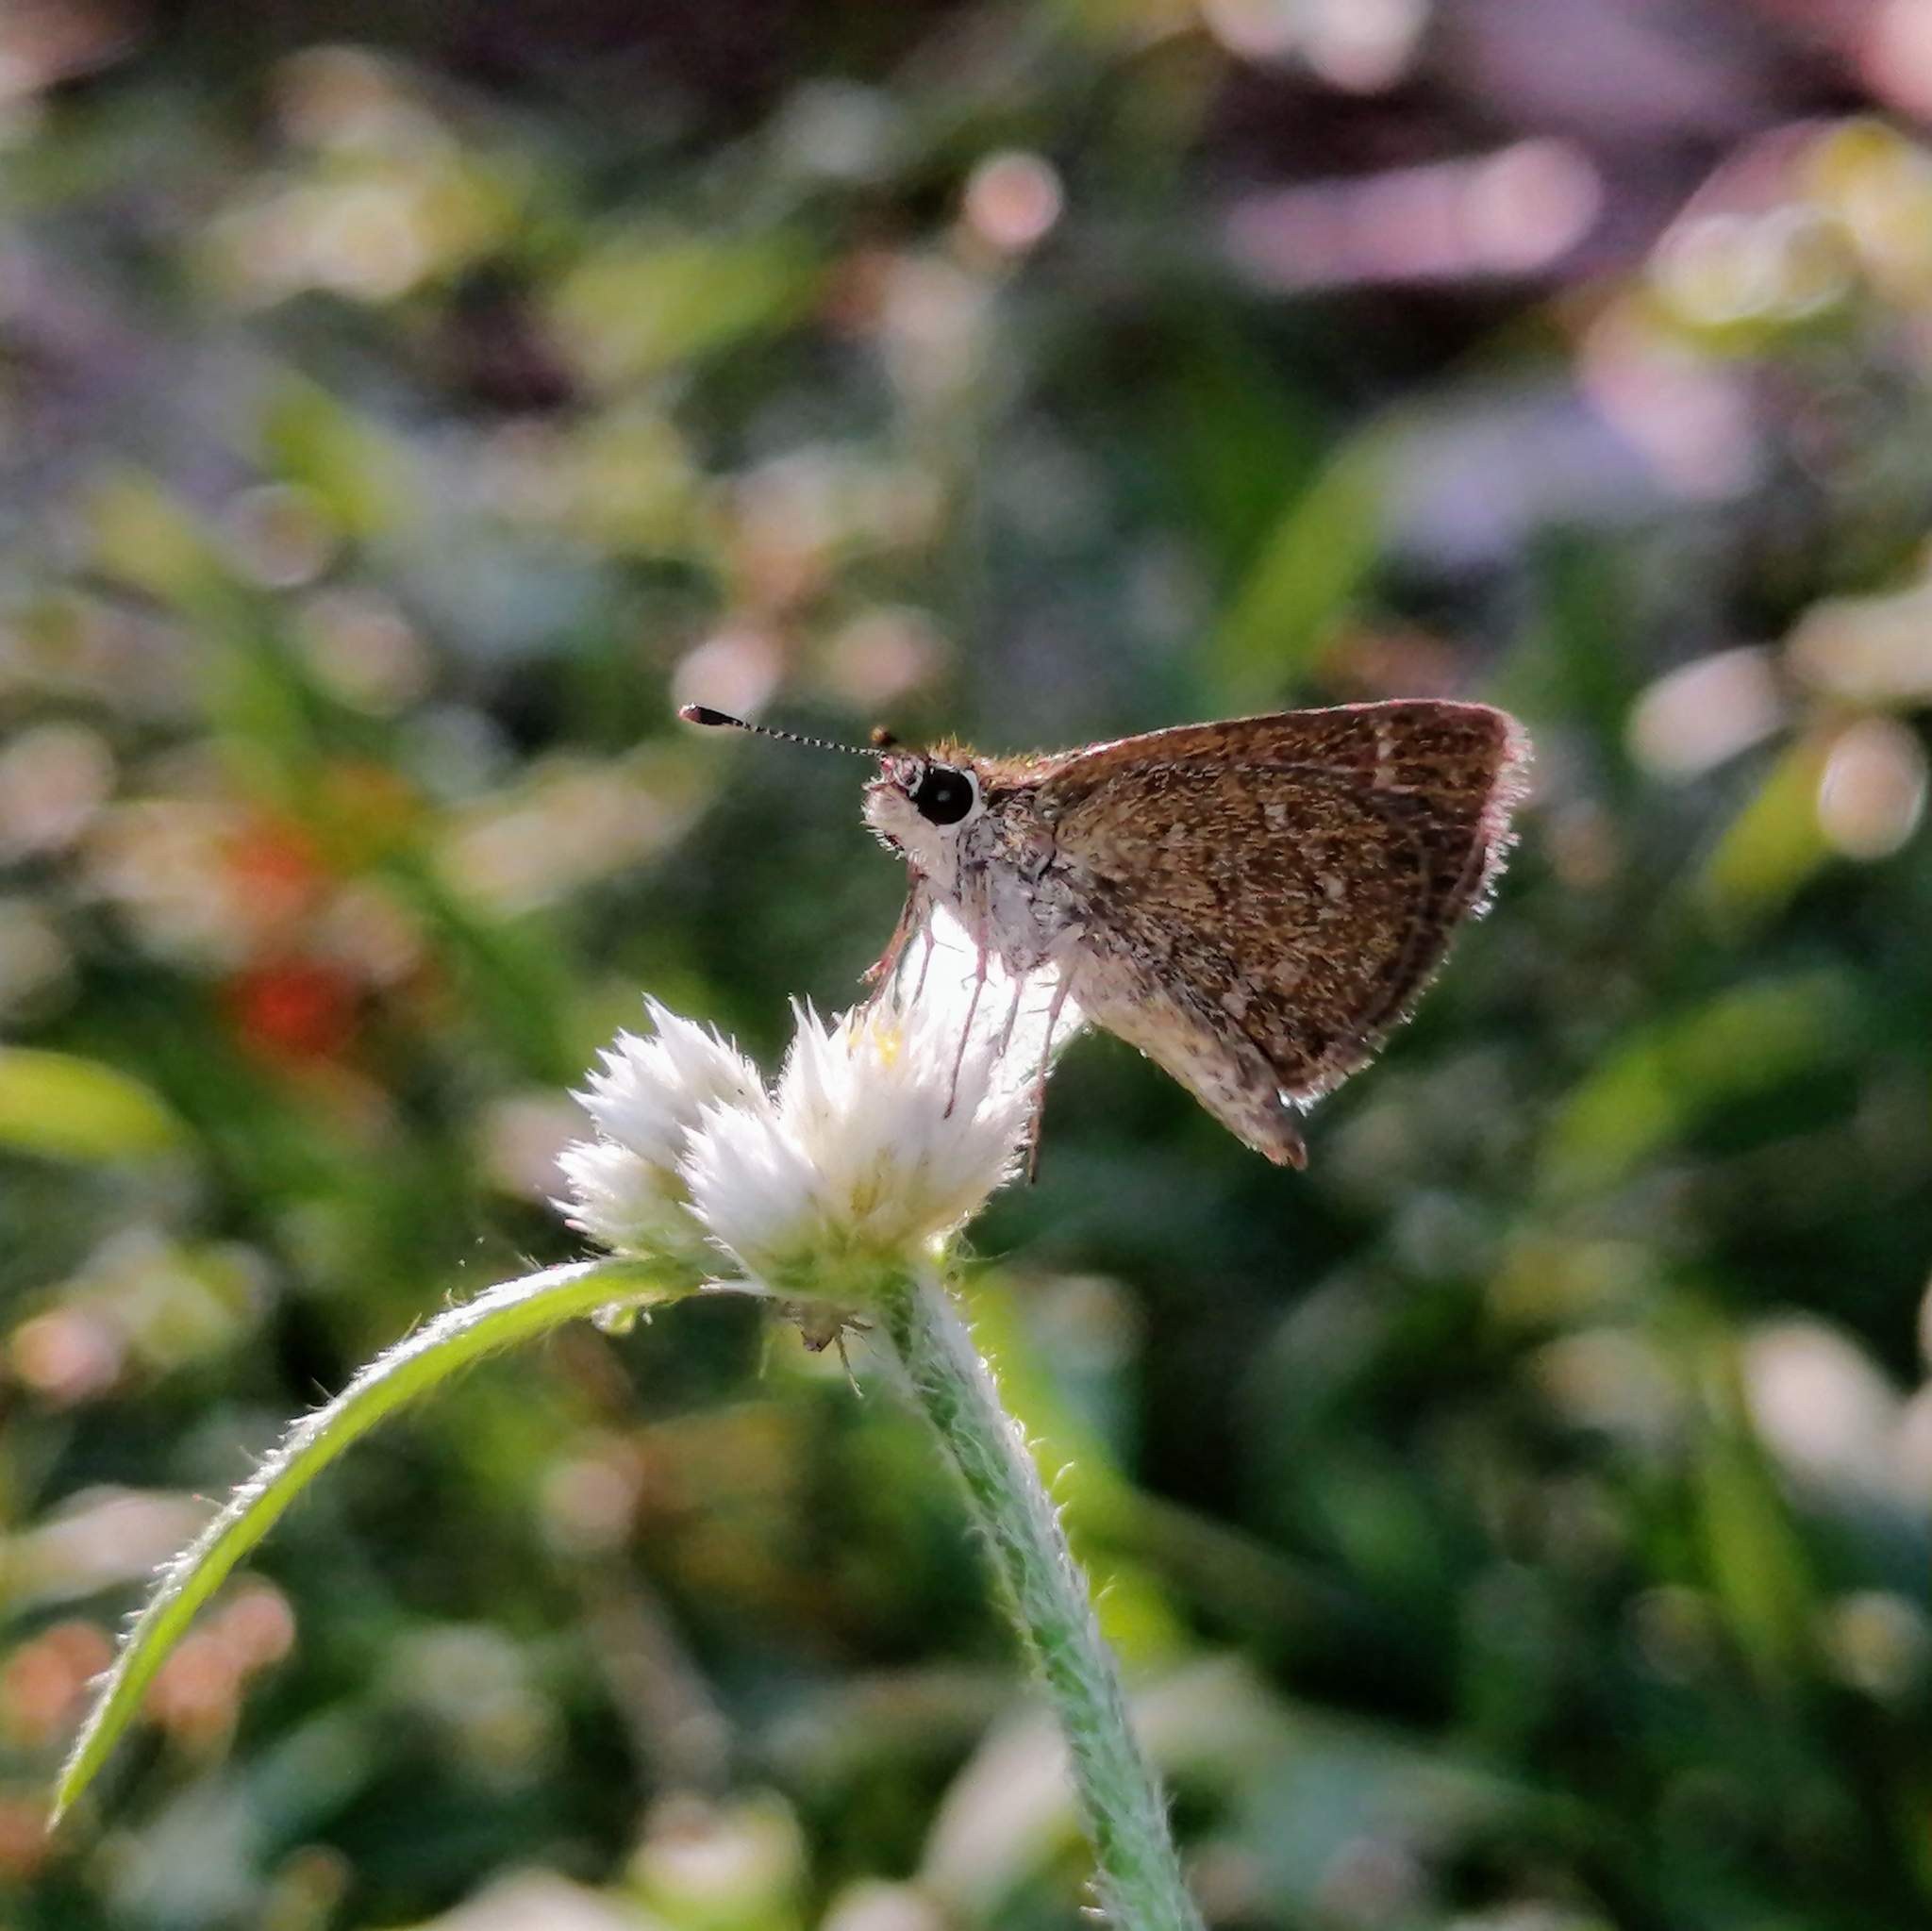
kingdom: Animalia
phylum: Arthropoda
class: Insecta
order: Lepidoptera
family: Hesperiidae
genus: Aeromachus
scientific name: Aeromachus pygmaeus
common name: Pygmy scrub hopper
